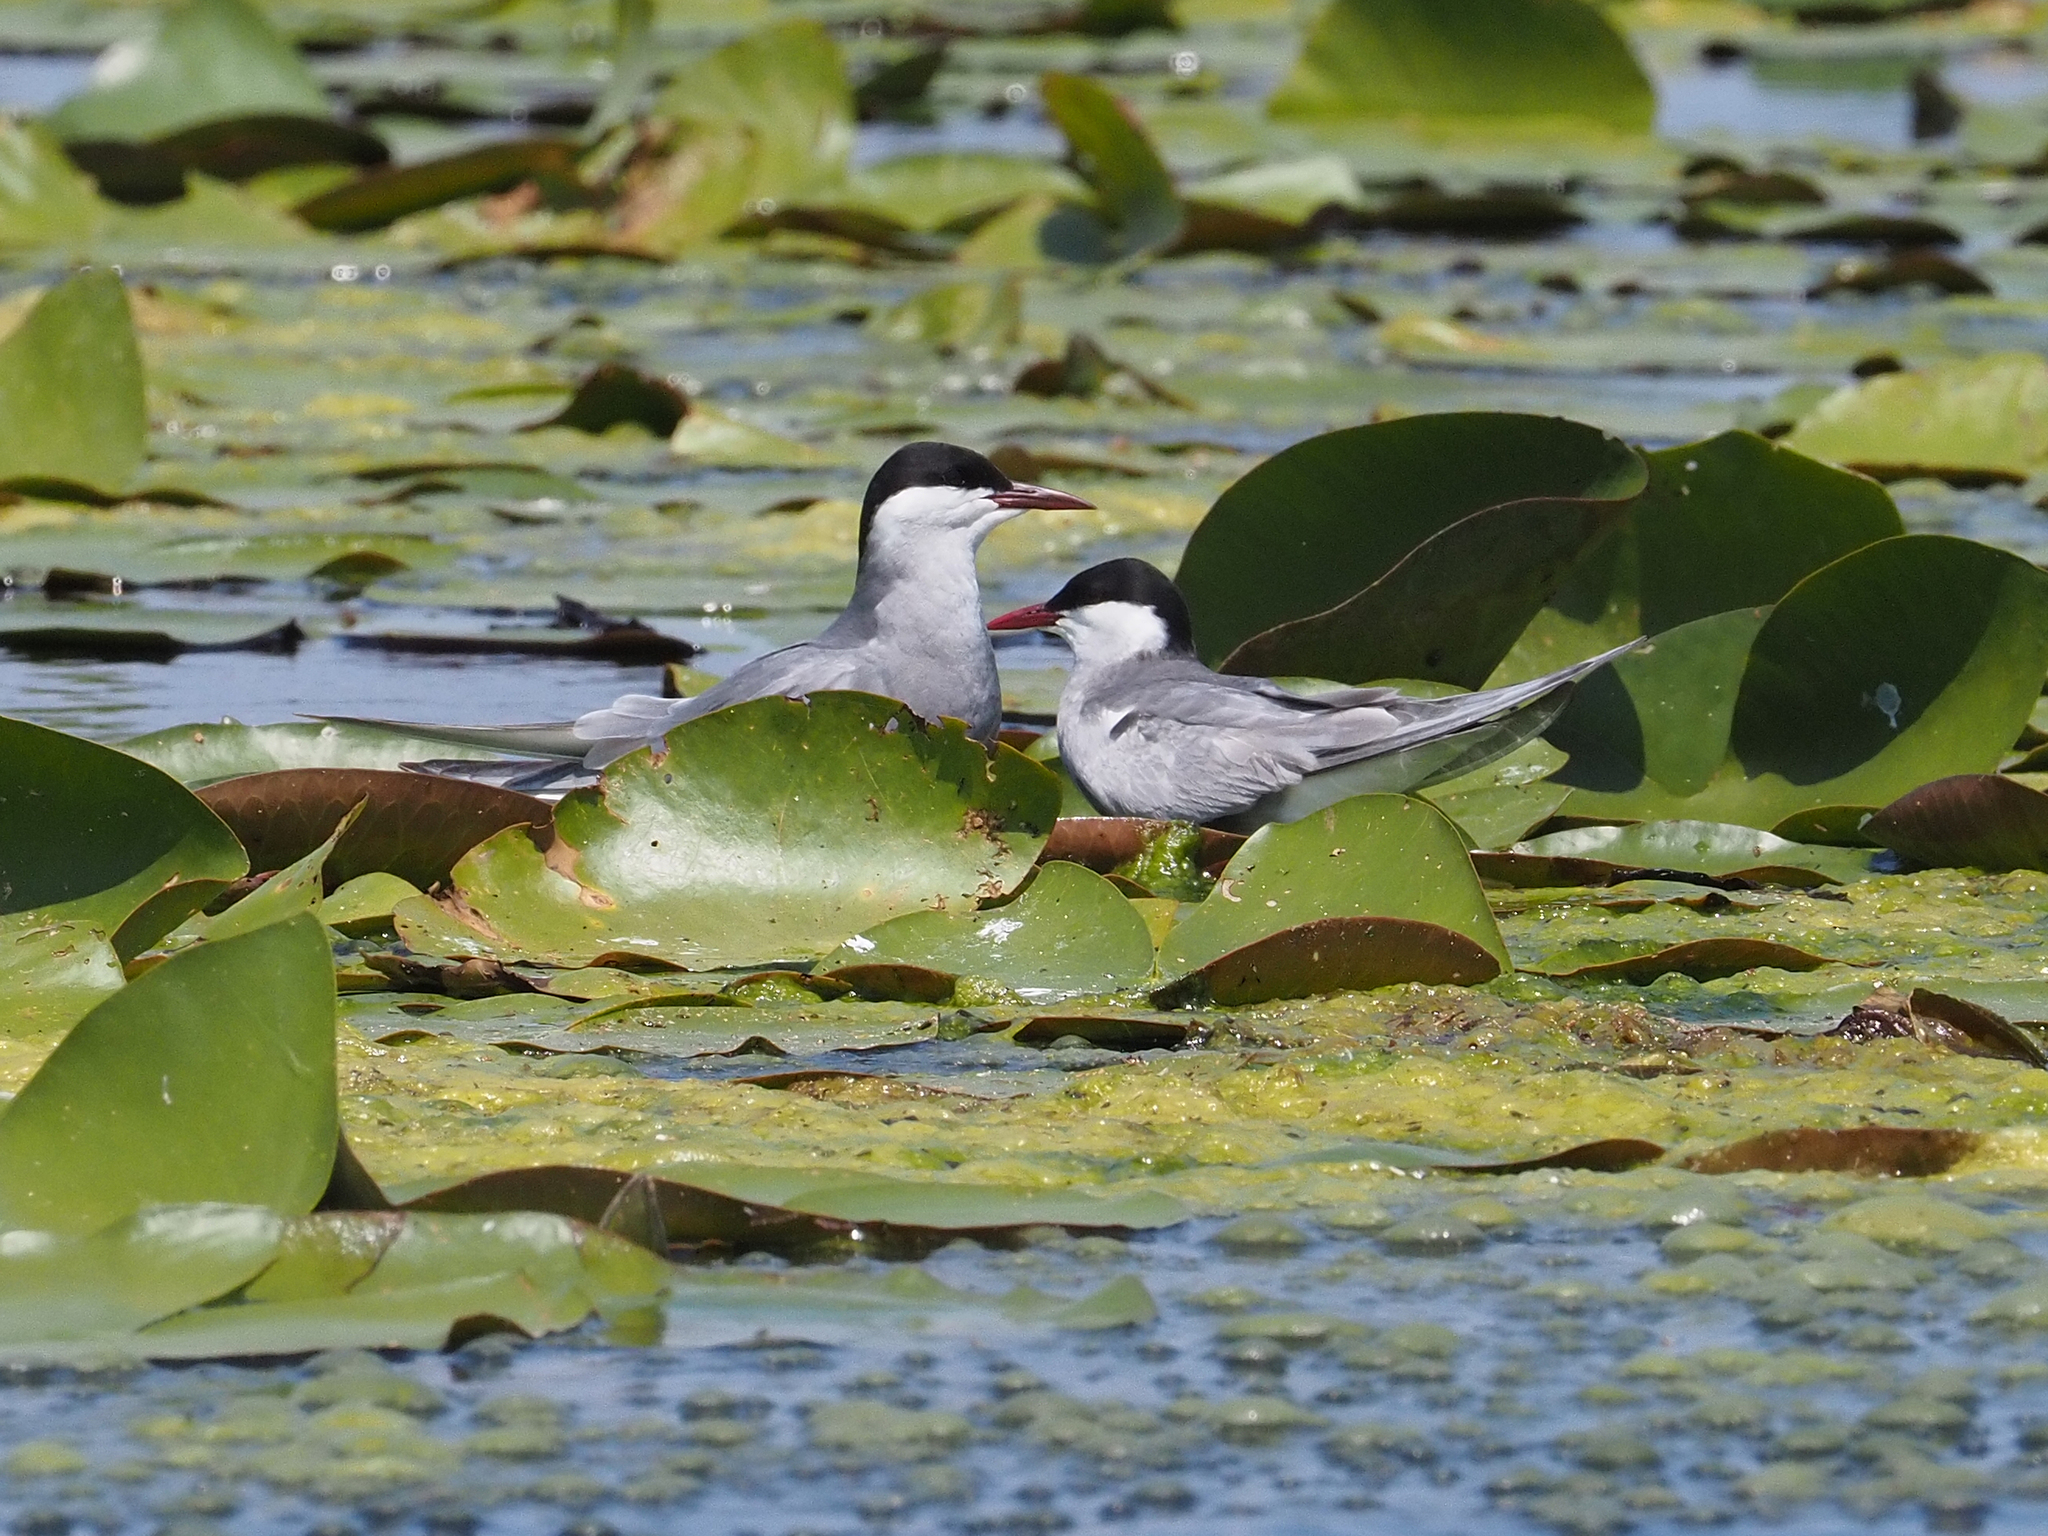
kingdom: Animalia
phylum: Chordata
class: Aves
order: Charadriiformes
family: Laridae
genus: Chlidonias
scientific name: Chlidonias hybrida
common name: Whiskered tern
